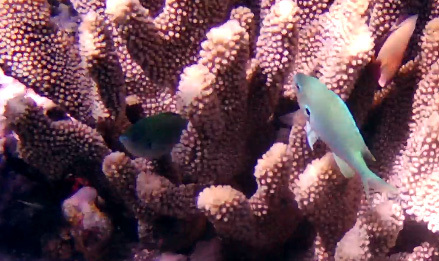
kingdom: Animalia
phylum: Chordata
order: Perciformes
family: Pomacentridae
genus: Chromis
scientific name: Chromis atripectoralis
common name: Black-axil chromis
